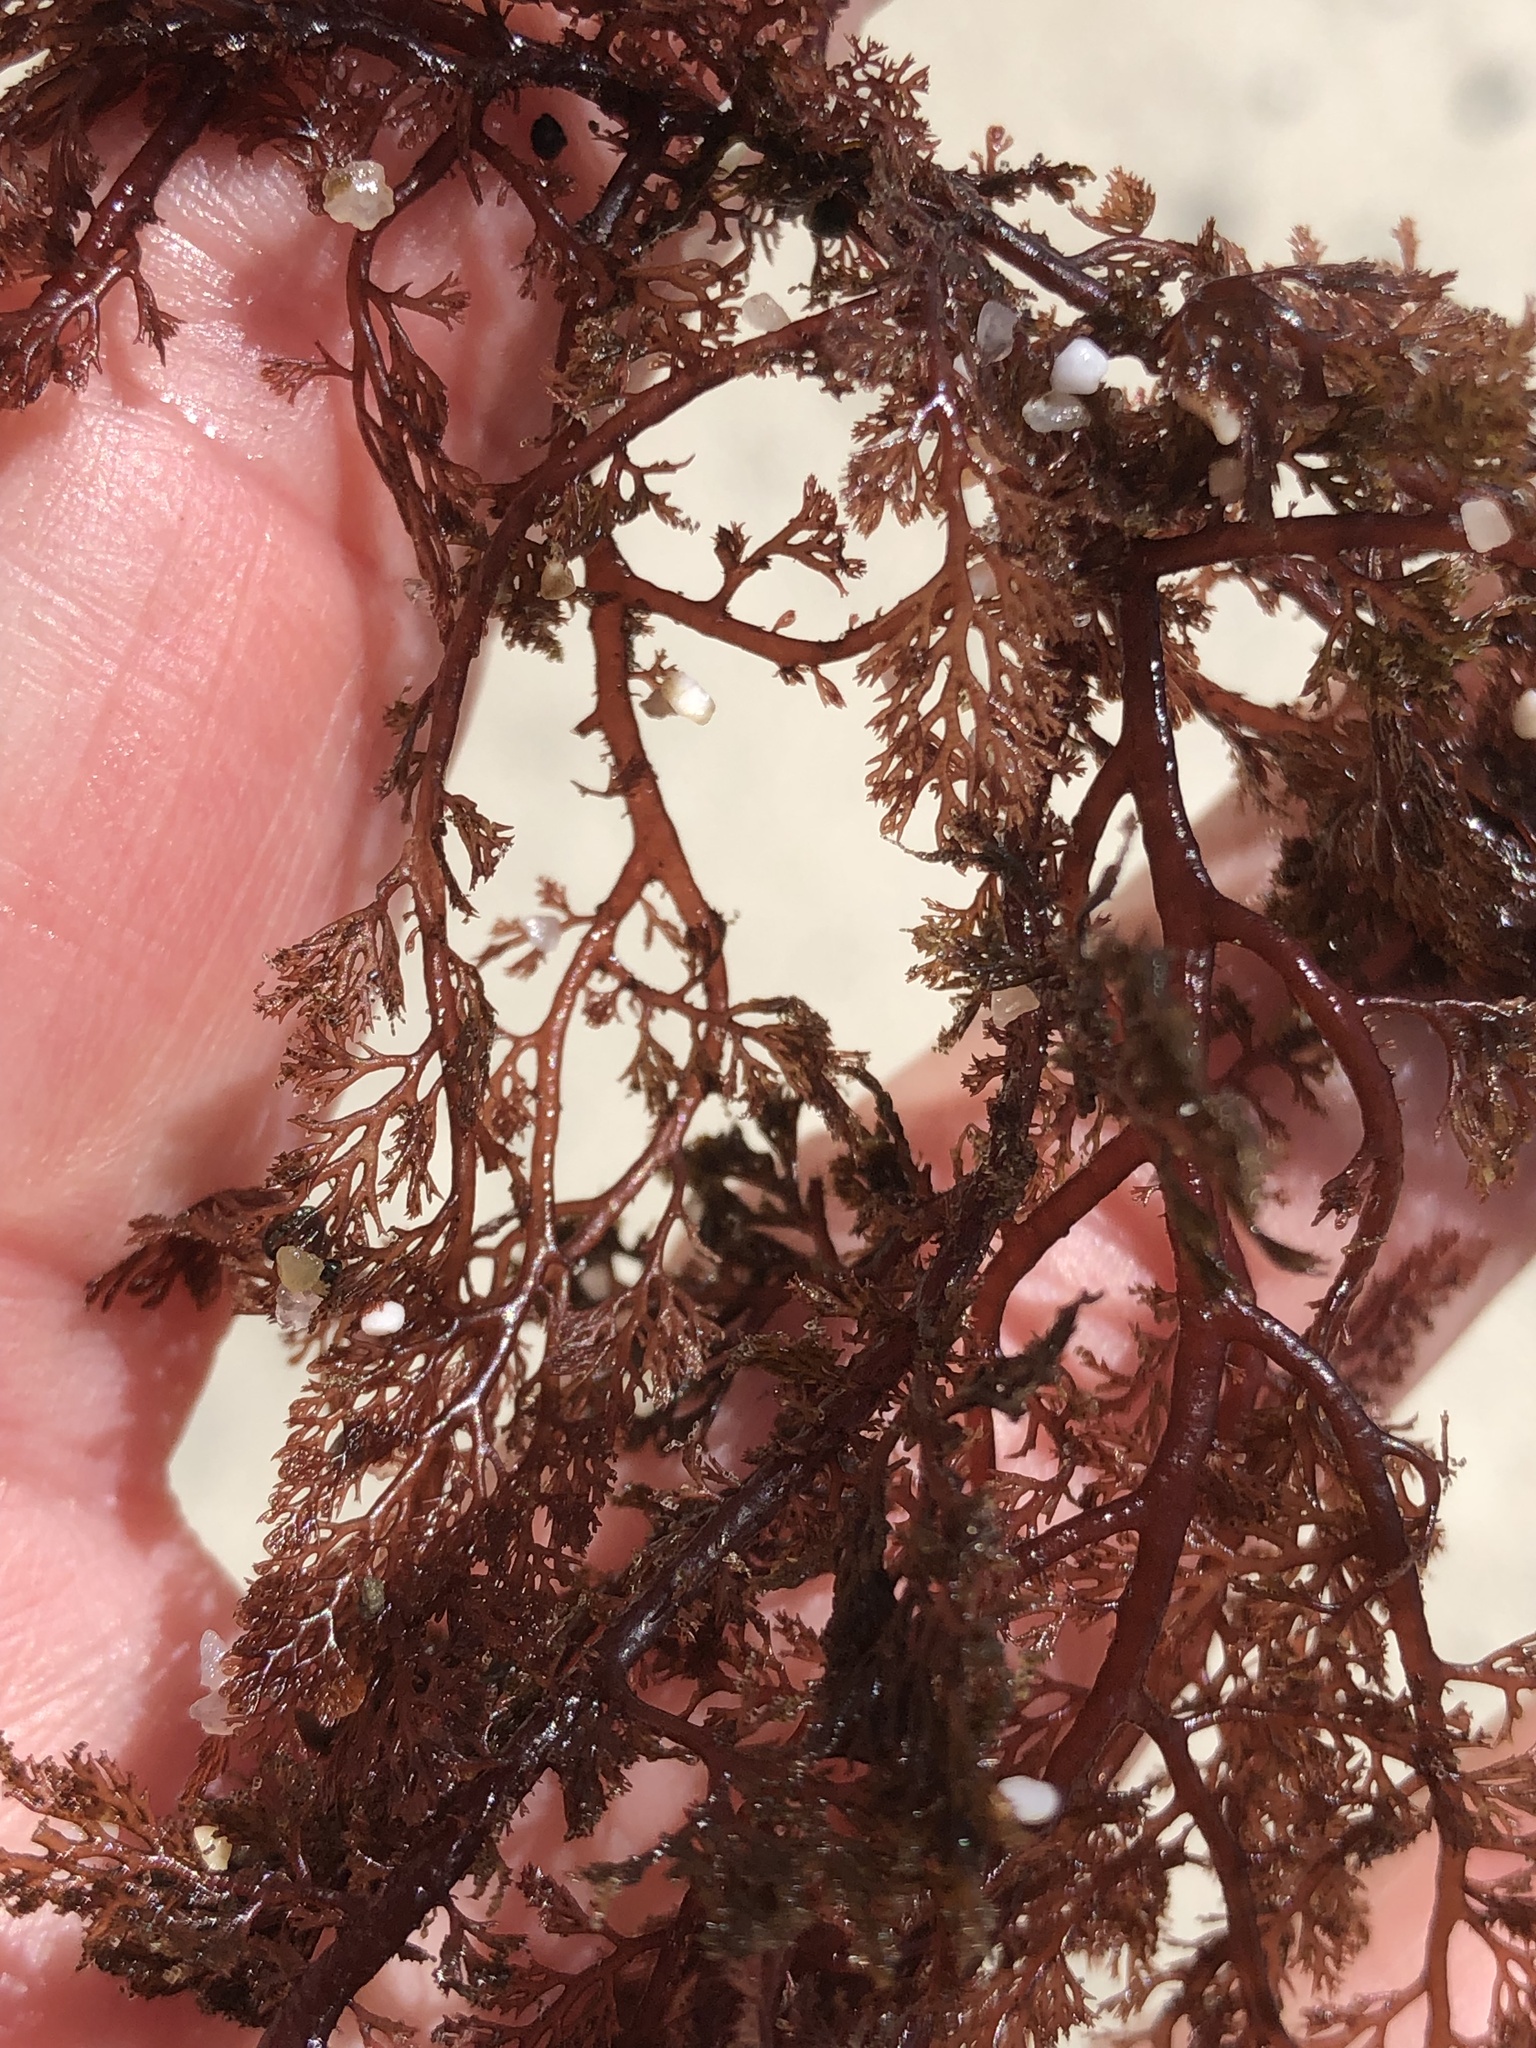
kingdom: Plantae
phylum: Rhodophyta
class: Florideophyceae
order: Ceramiales
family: Ceramiaceae
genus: Microcladia
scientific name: Microcladia coulteri
